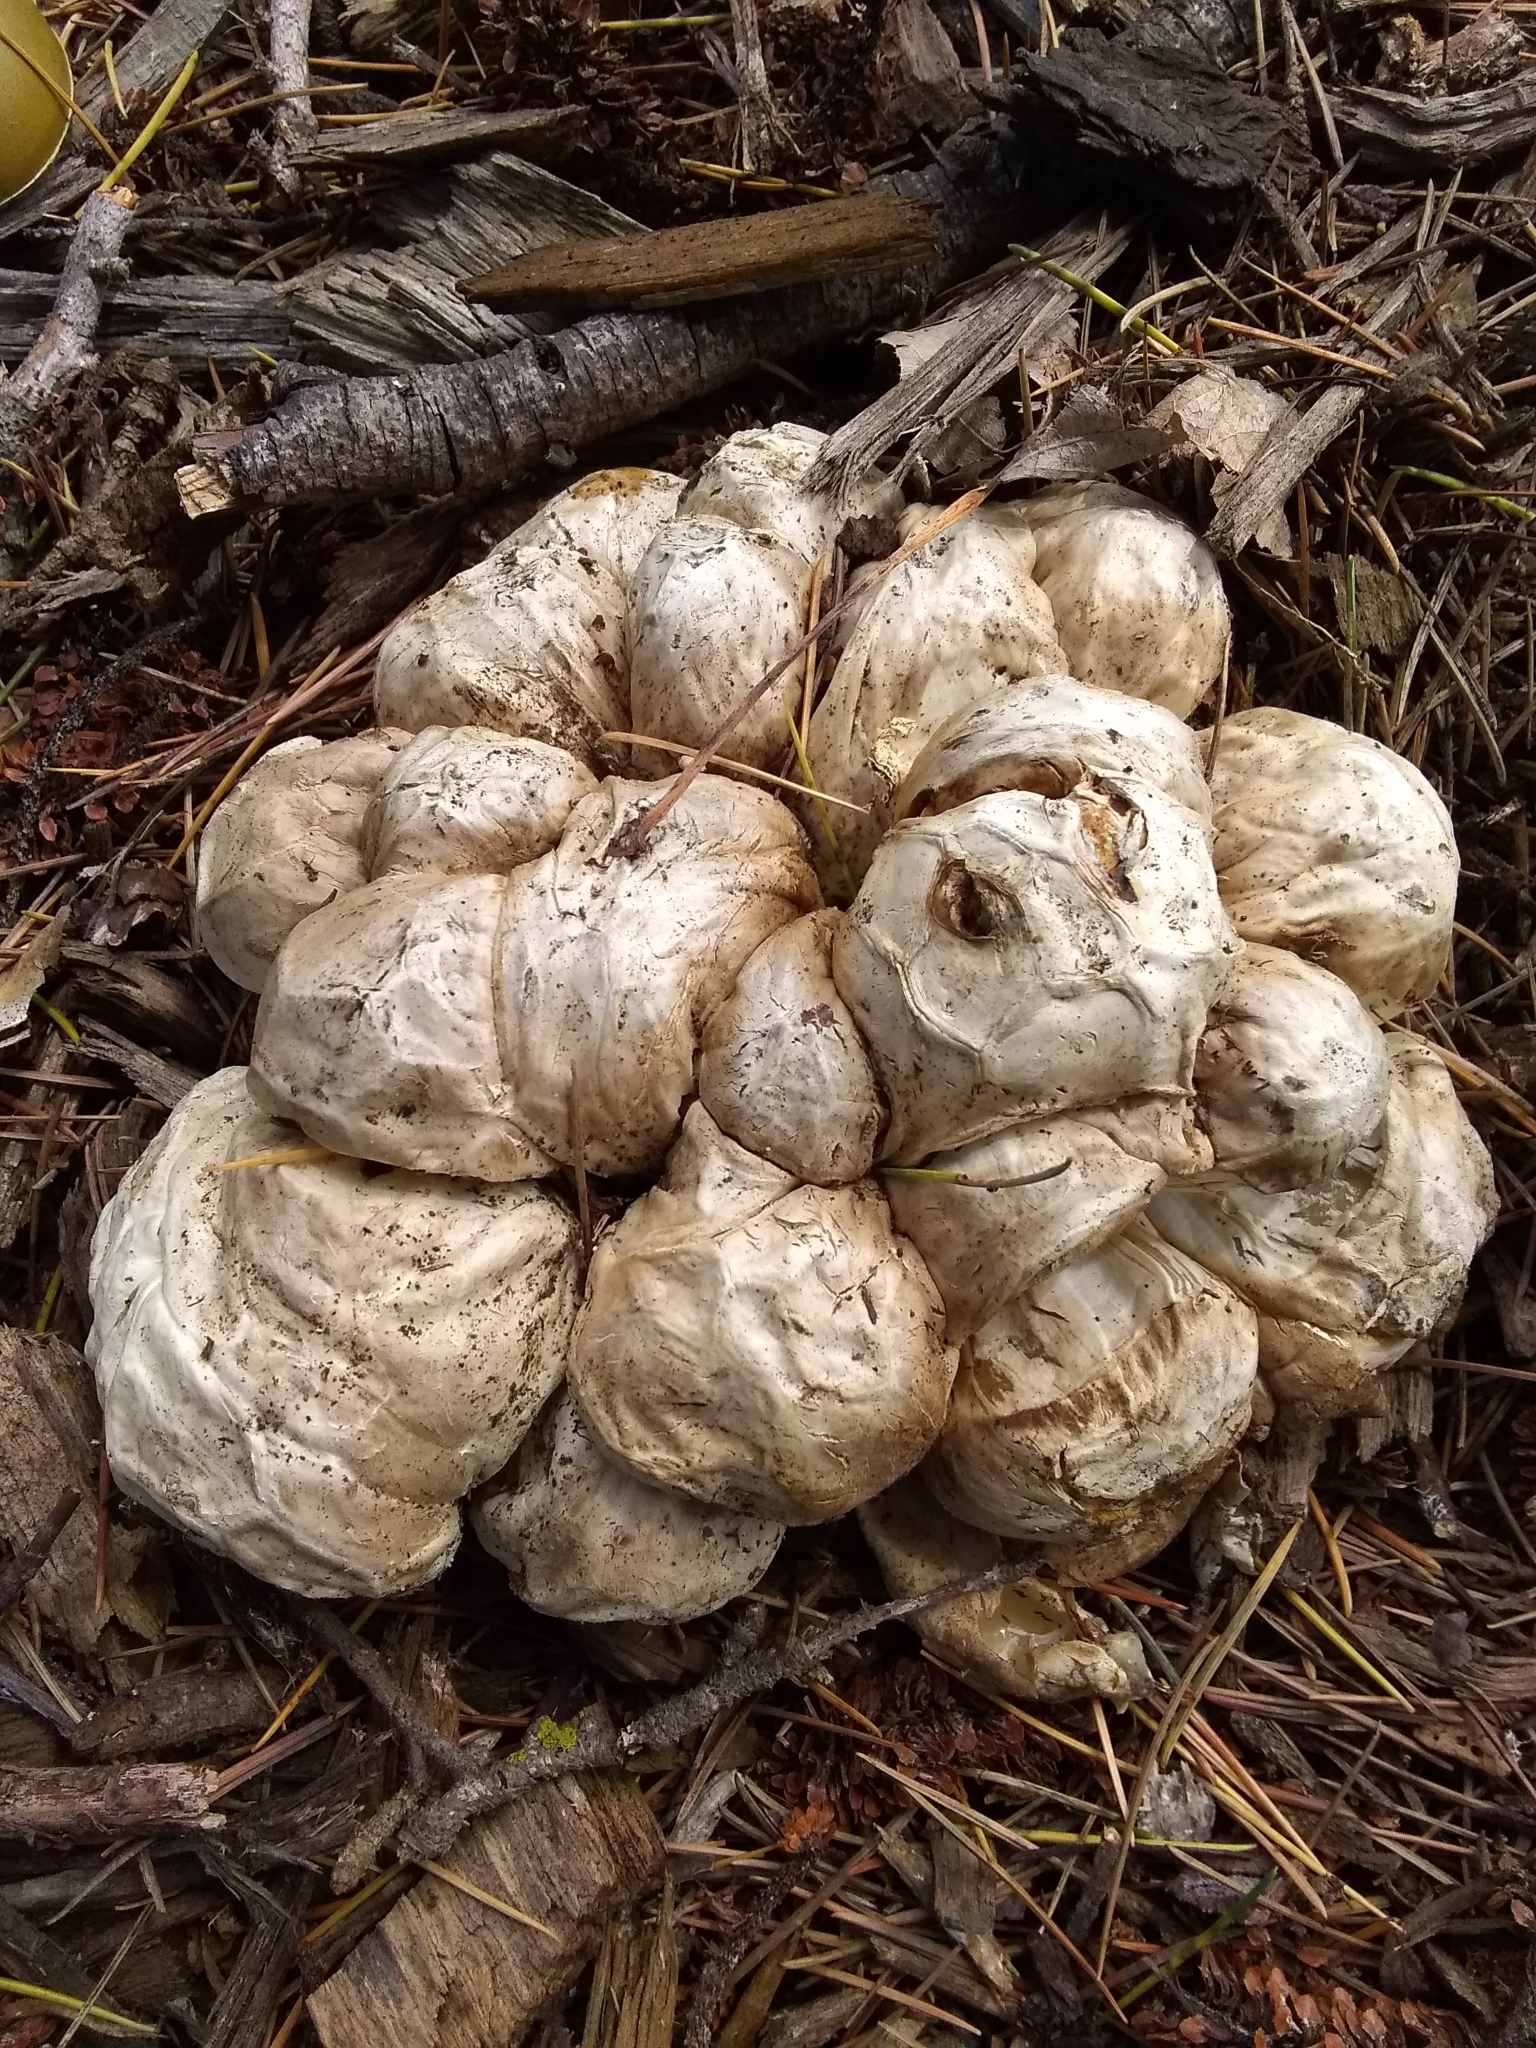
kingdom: Fungi
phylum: Basidiomycota
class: Agaricomycetes
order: Phallales
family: Phallaceae
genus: Clathrus
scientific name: Clathrus ruber
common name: Red cage
